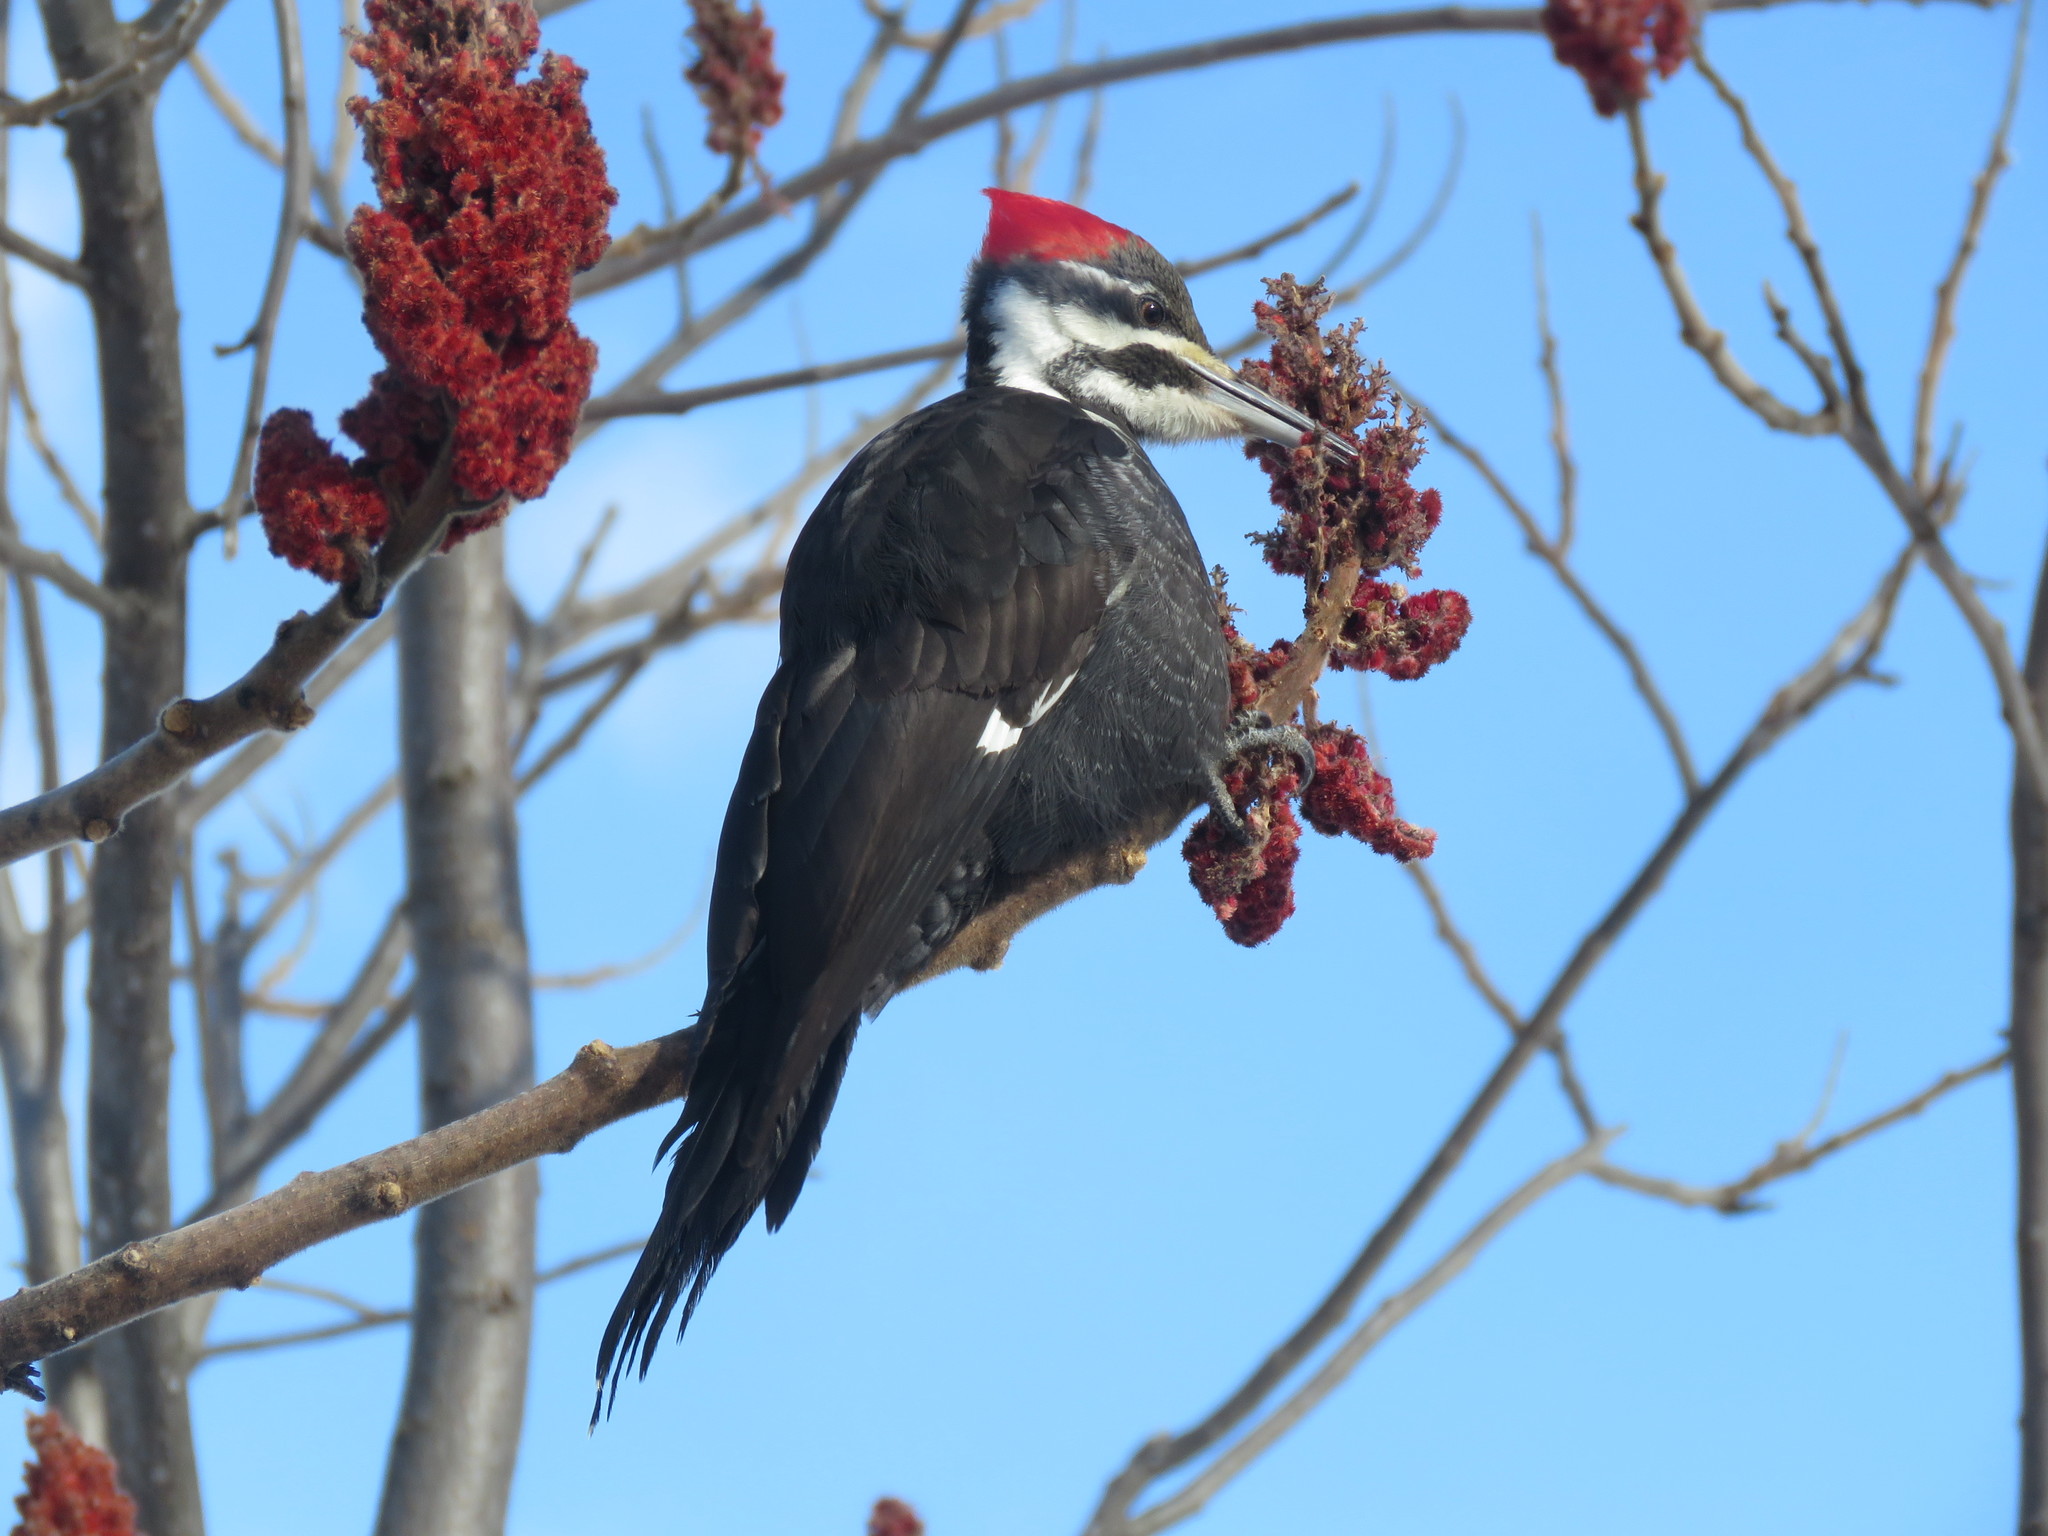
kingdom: Animalia
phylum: Chordata
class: Aves
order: Piciformes
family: Picidae
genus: Dryocopus
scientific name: Dryocopus pileatus
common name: Pileated woodpecker
